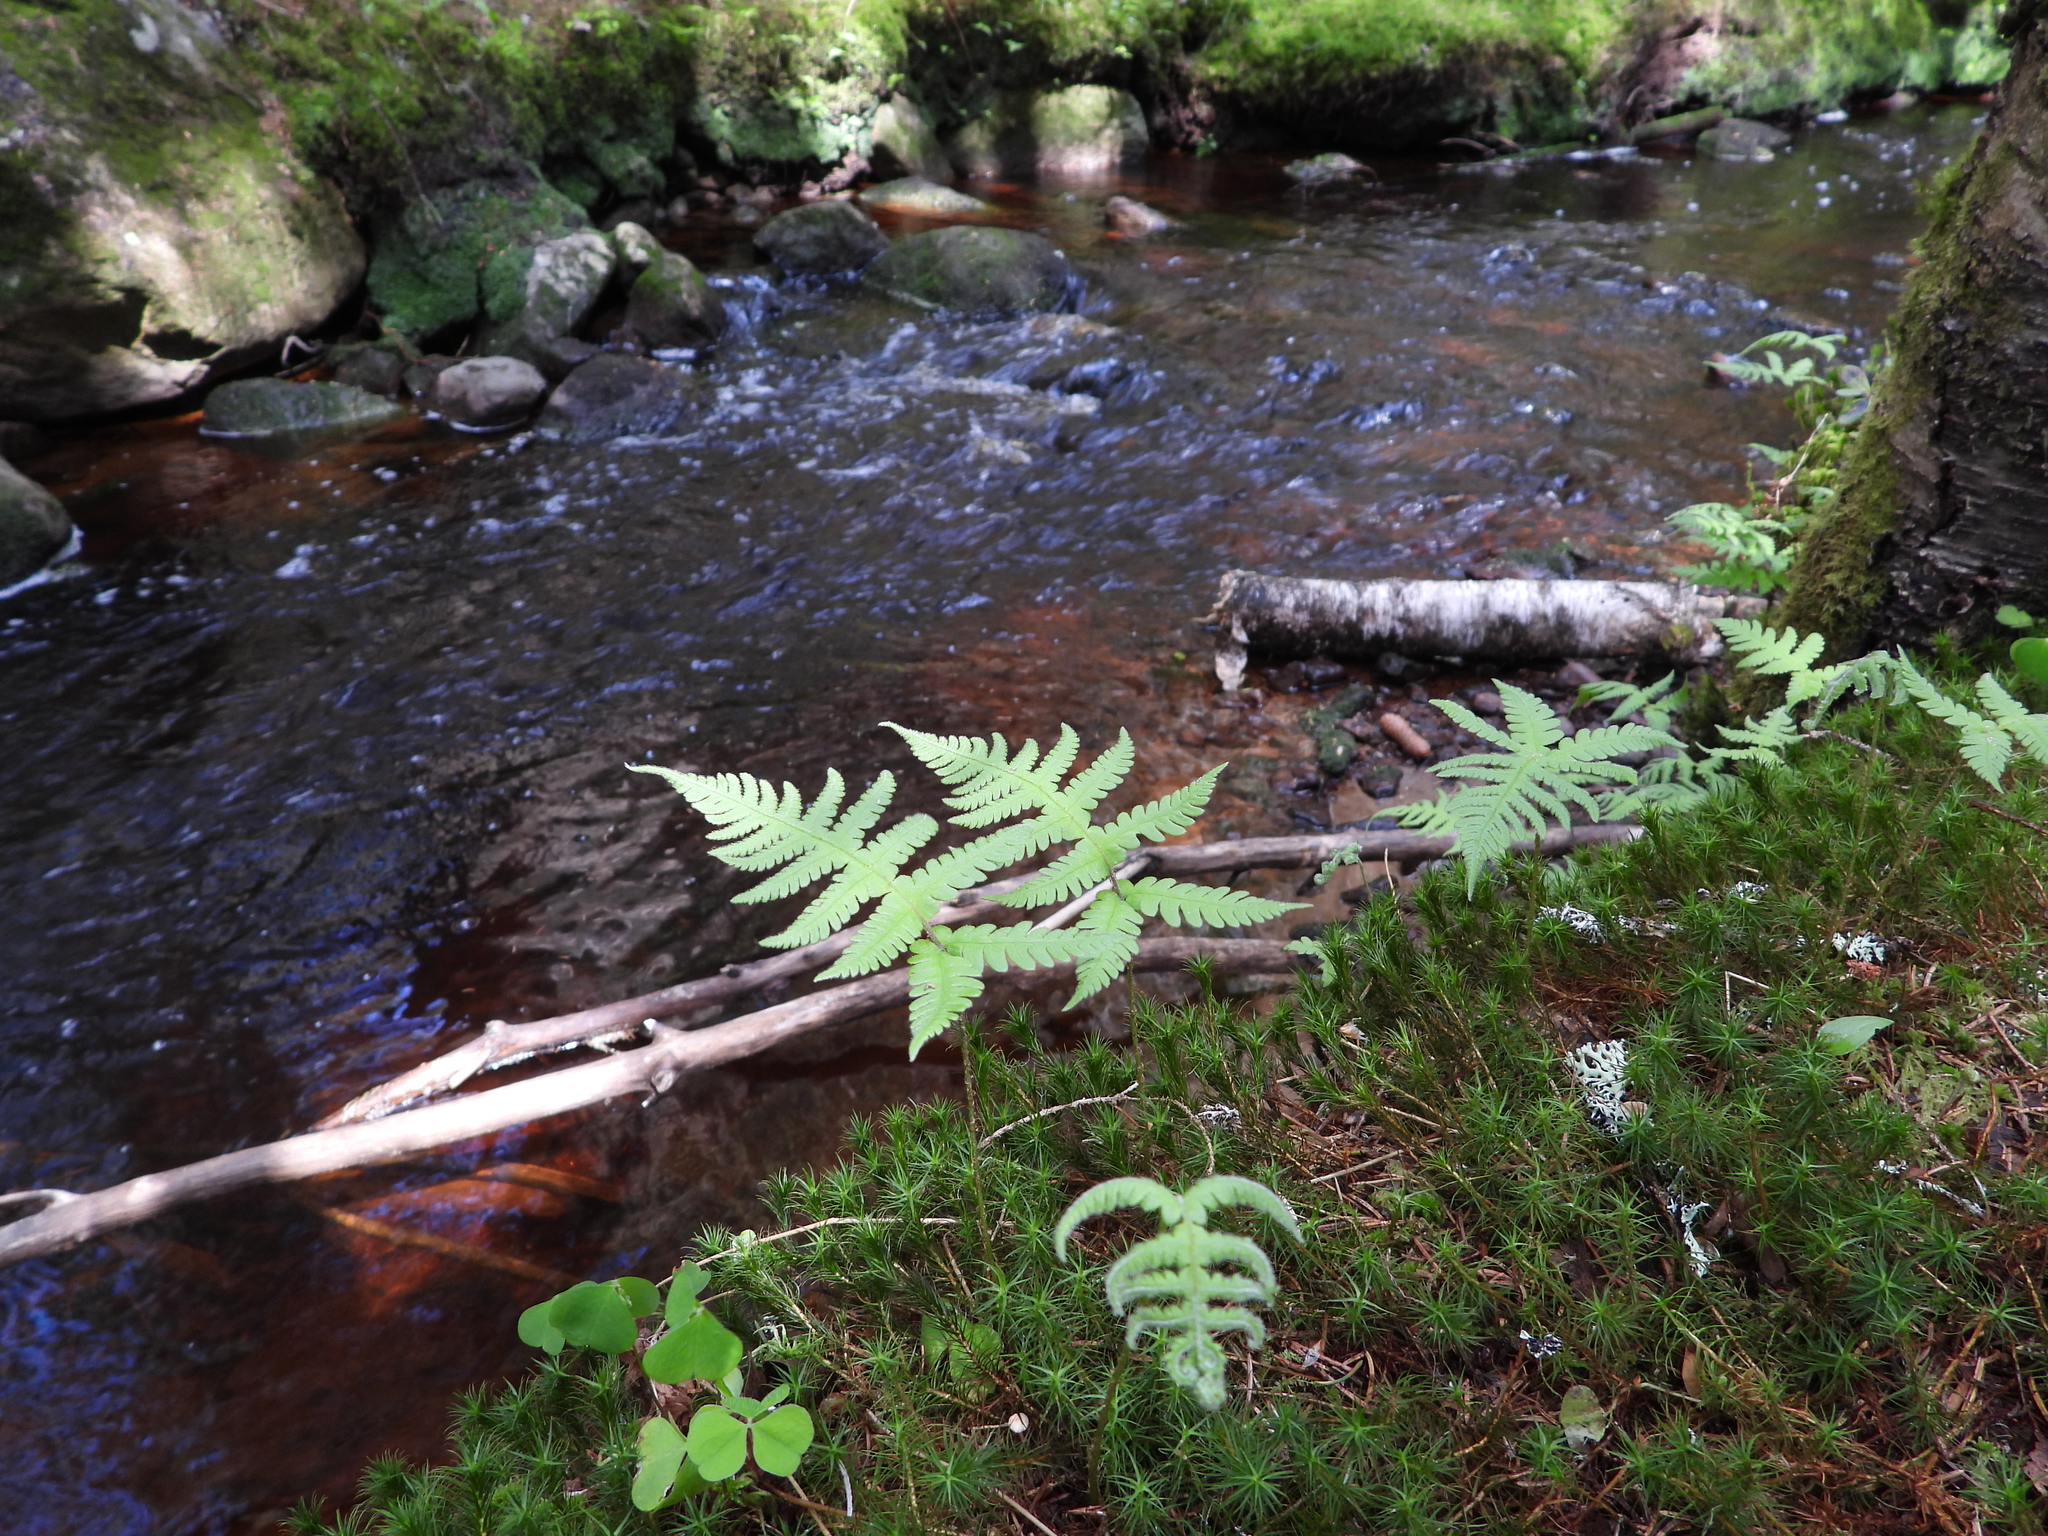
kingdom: Plantae
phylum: Tracheophyta
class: Polypodiopsida
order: Polypodiales
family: Thelypteridaceae
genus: Phegopteris
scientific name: Phegopteris connectilis
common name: Beech fern
